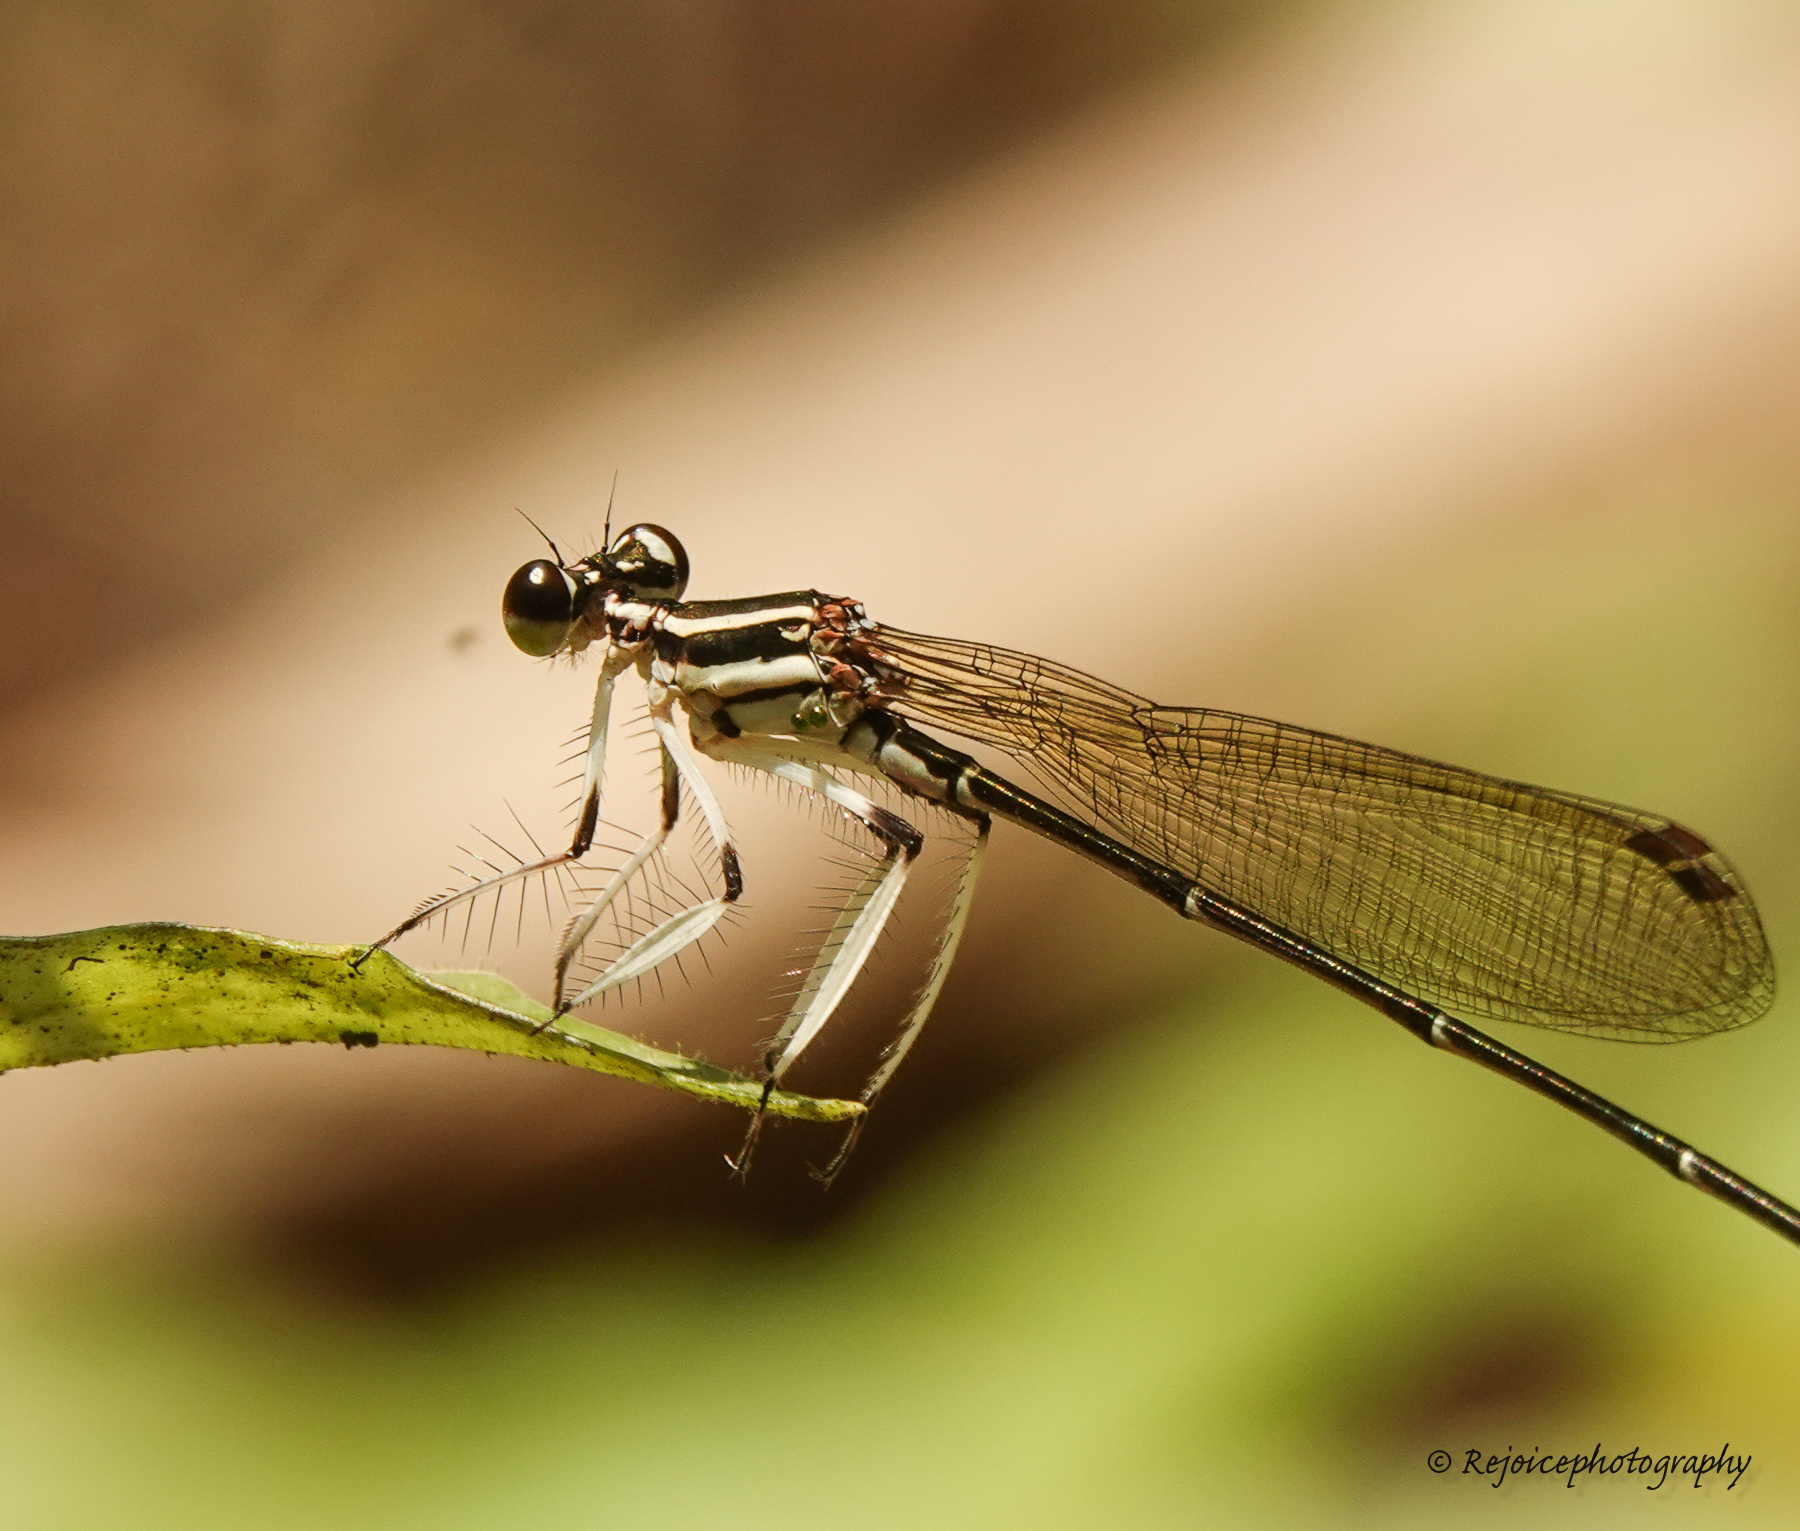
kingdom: Animalia
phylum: Arthropoda
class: Insecta
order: Odonata
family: Platycnemididae
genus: Pseudocopera
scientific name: Pseudocopera ciliata
